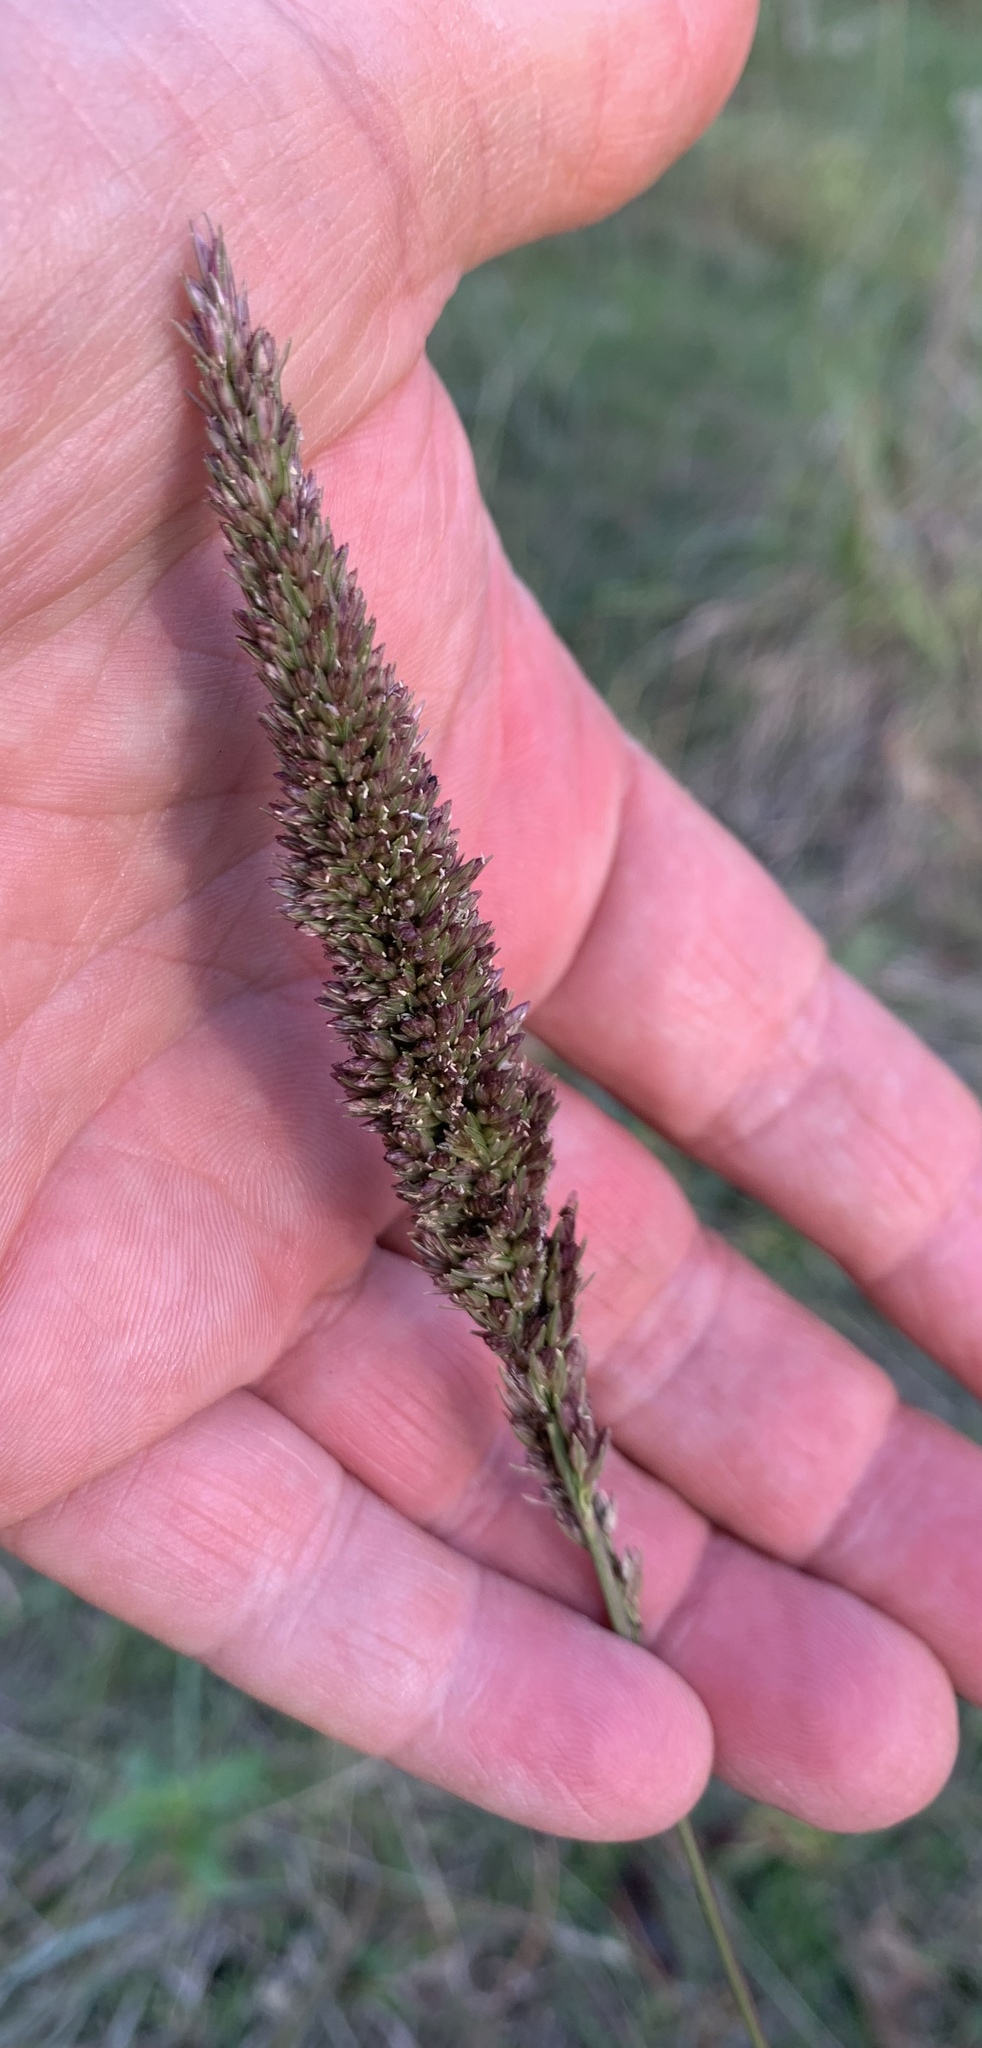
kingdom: Plantae
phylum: Tracheophyta
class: Liliopsida
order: Poales
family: Poaceae
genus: Tridens
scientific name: Tridens strictus
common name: Long-spike tridens
